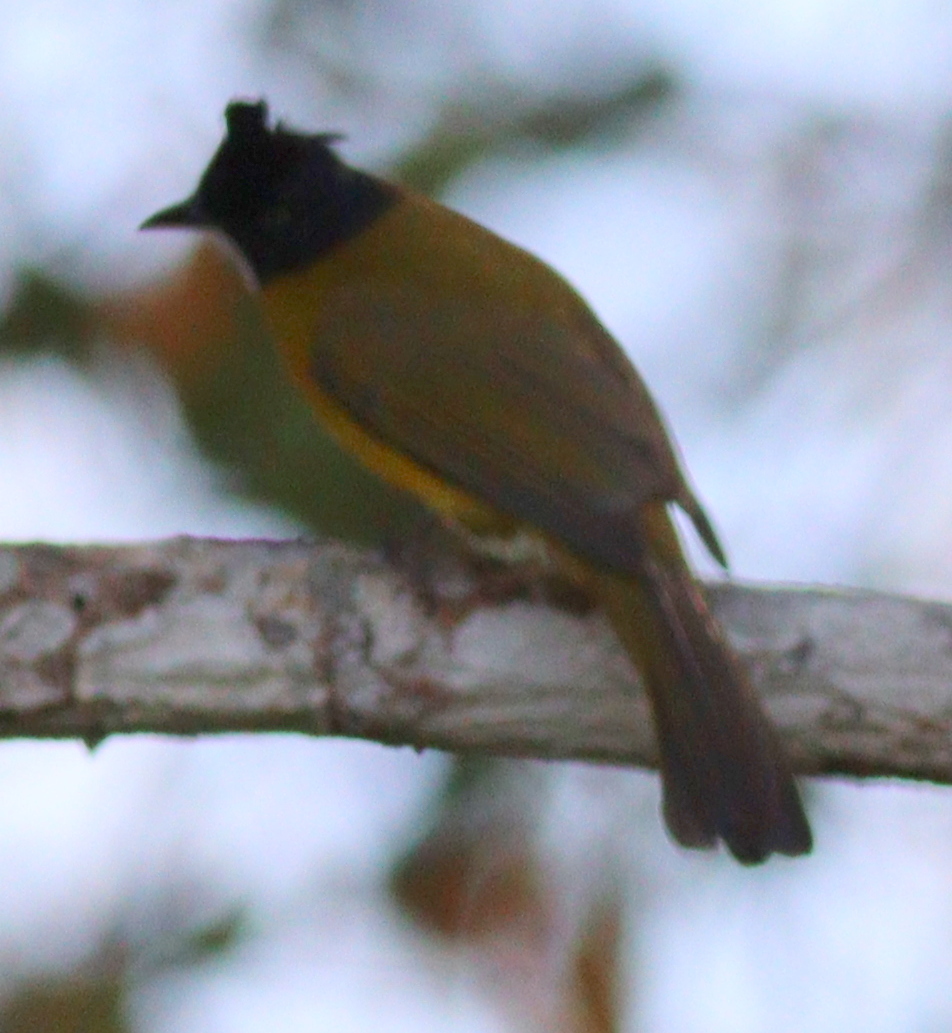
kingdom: Animalia
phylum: Chordata
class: Aves
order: Passeriformes
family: Pycnonotidae
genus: Pycnonotus
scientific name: Pycnonotus flaviventris
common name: Black-crested bulbul
